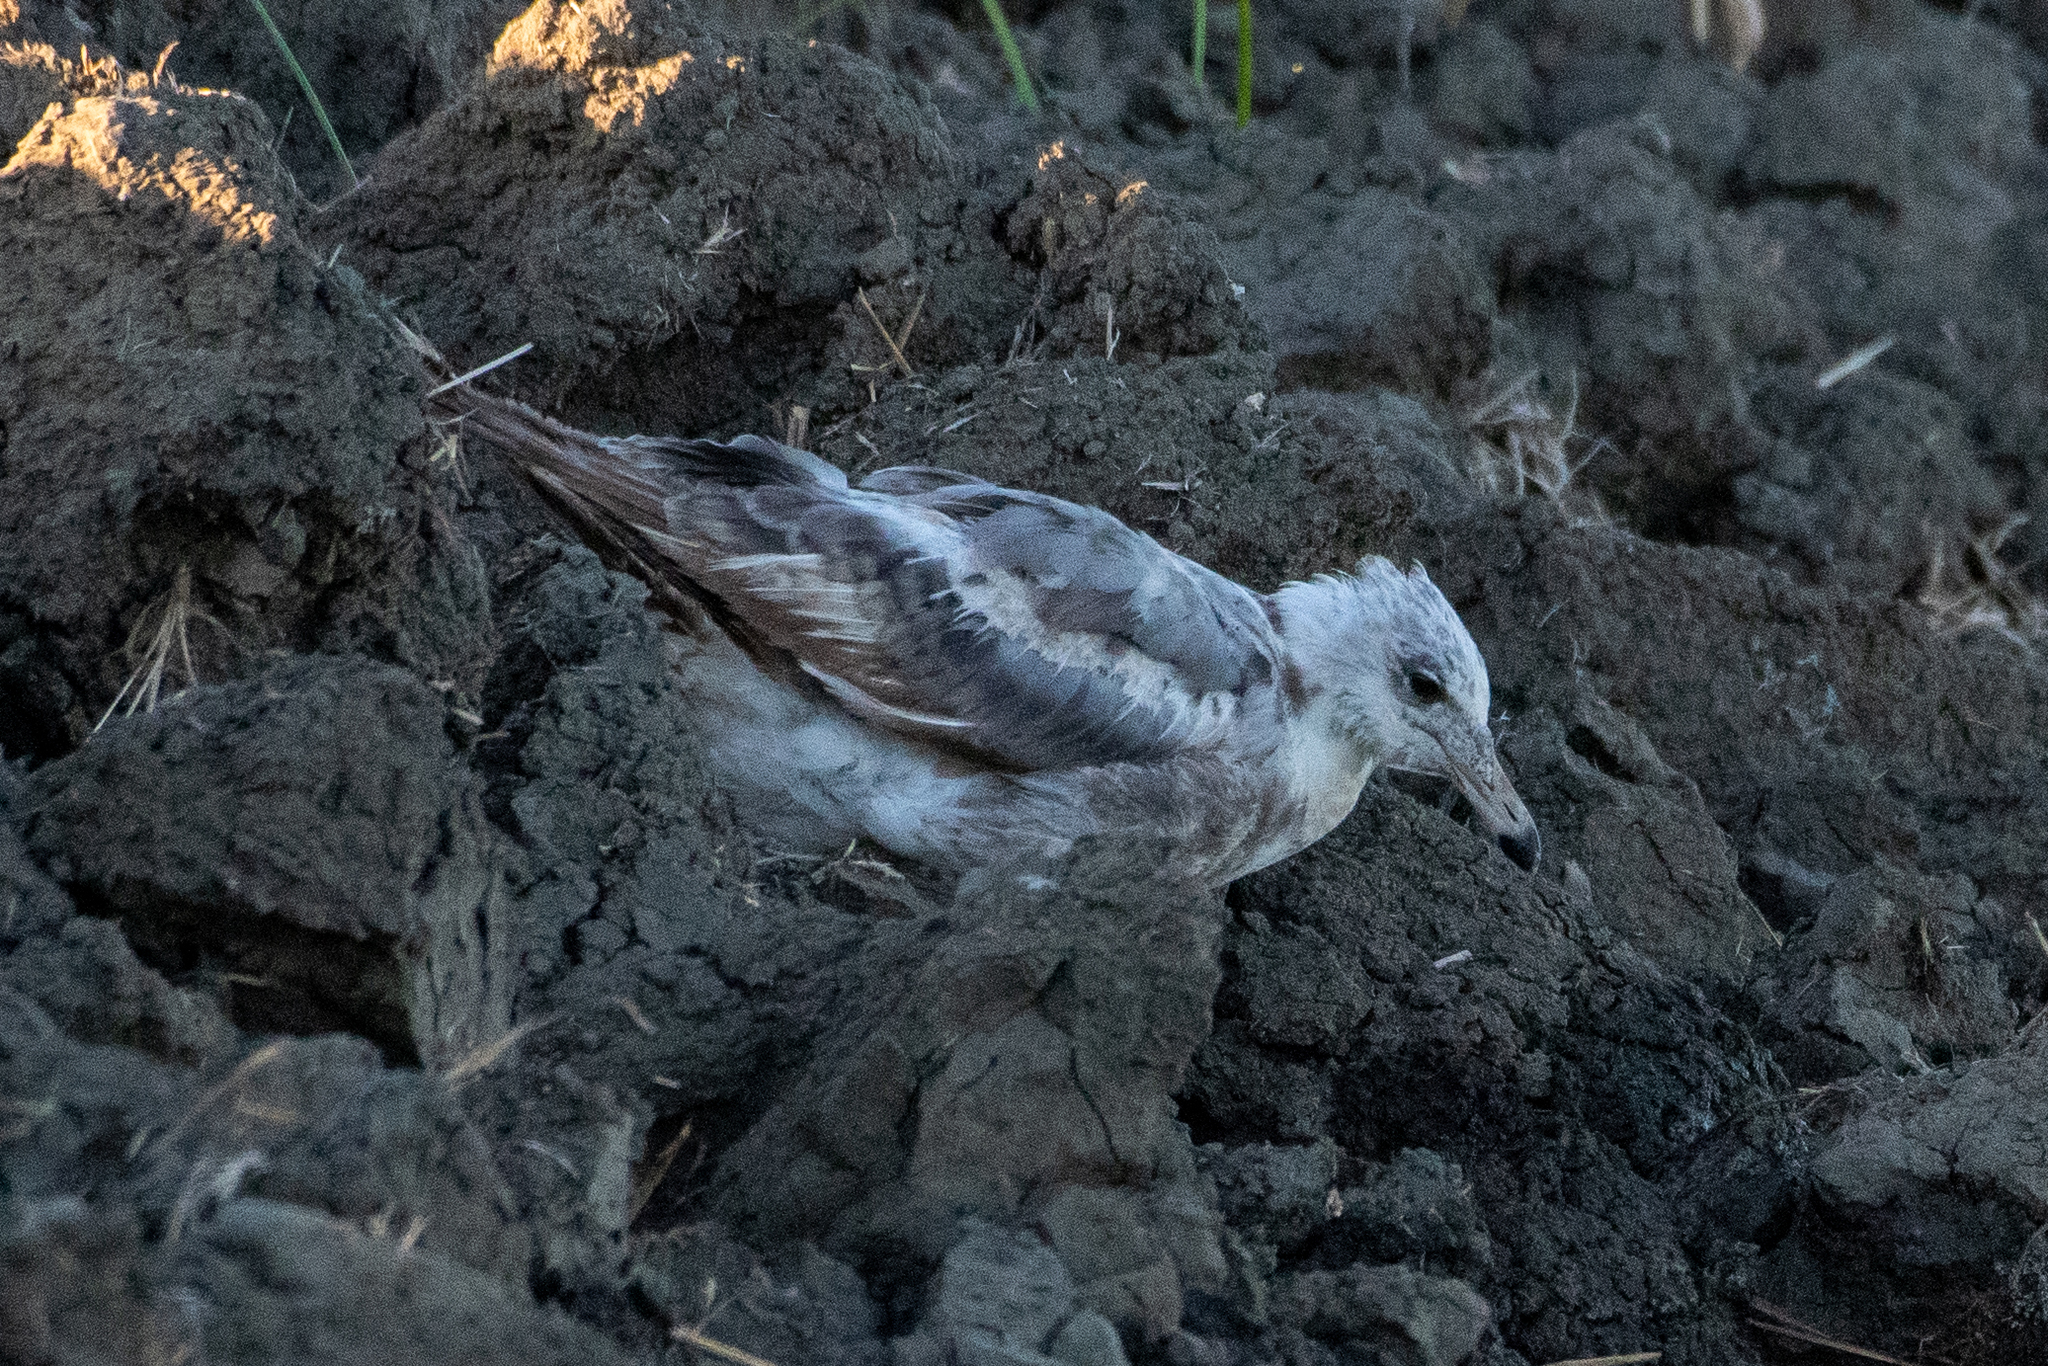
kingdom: Animalia
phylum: Chordata
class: Aves
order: Charadriiformes
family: Laridae
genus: Larus
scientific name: Larus californicus
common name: California gull
